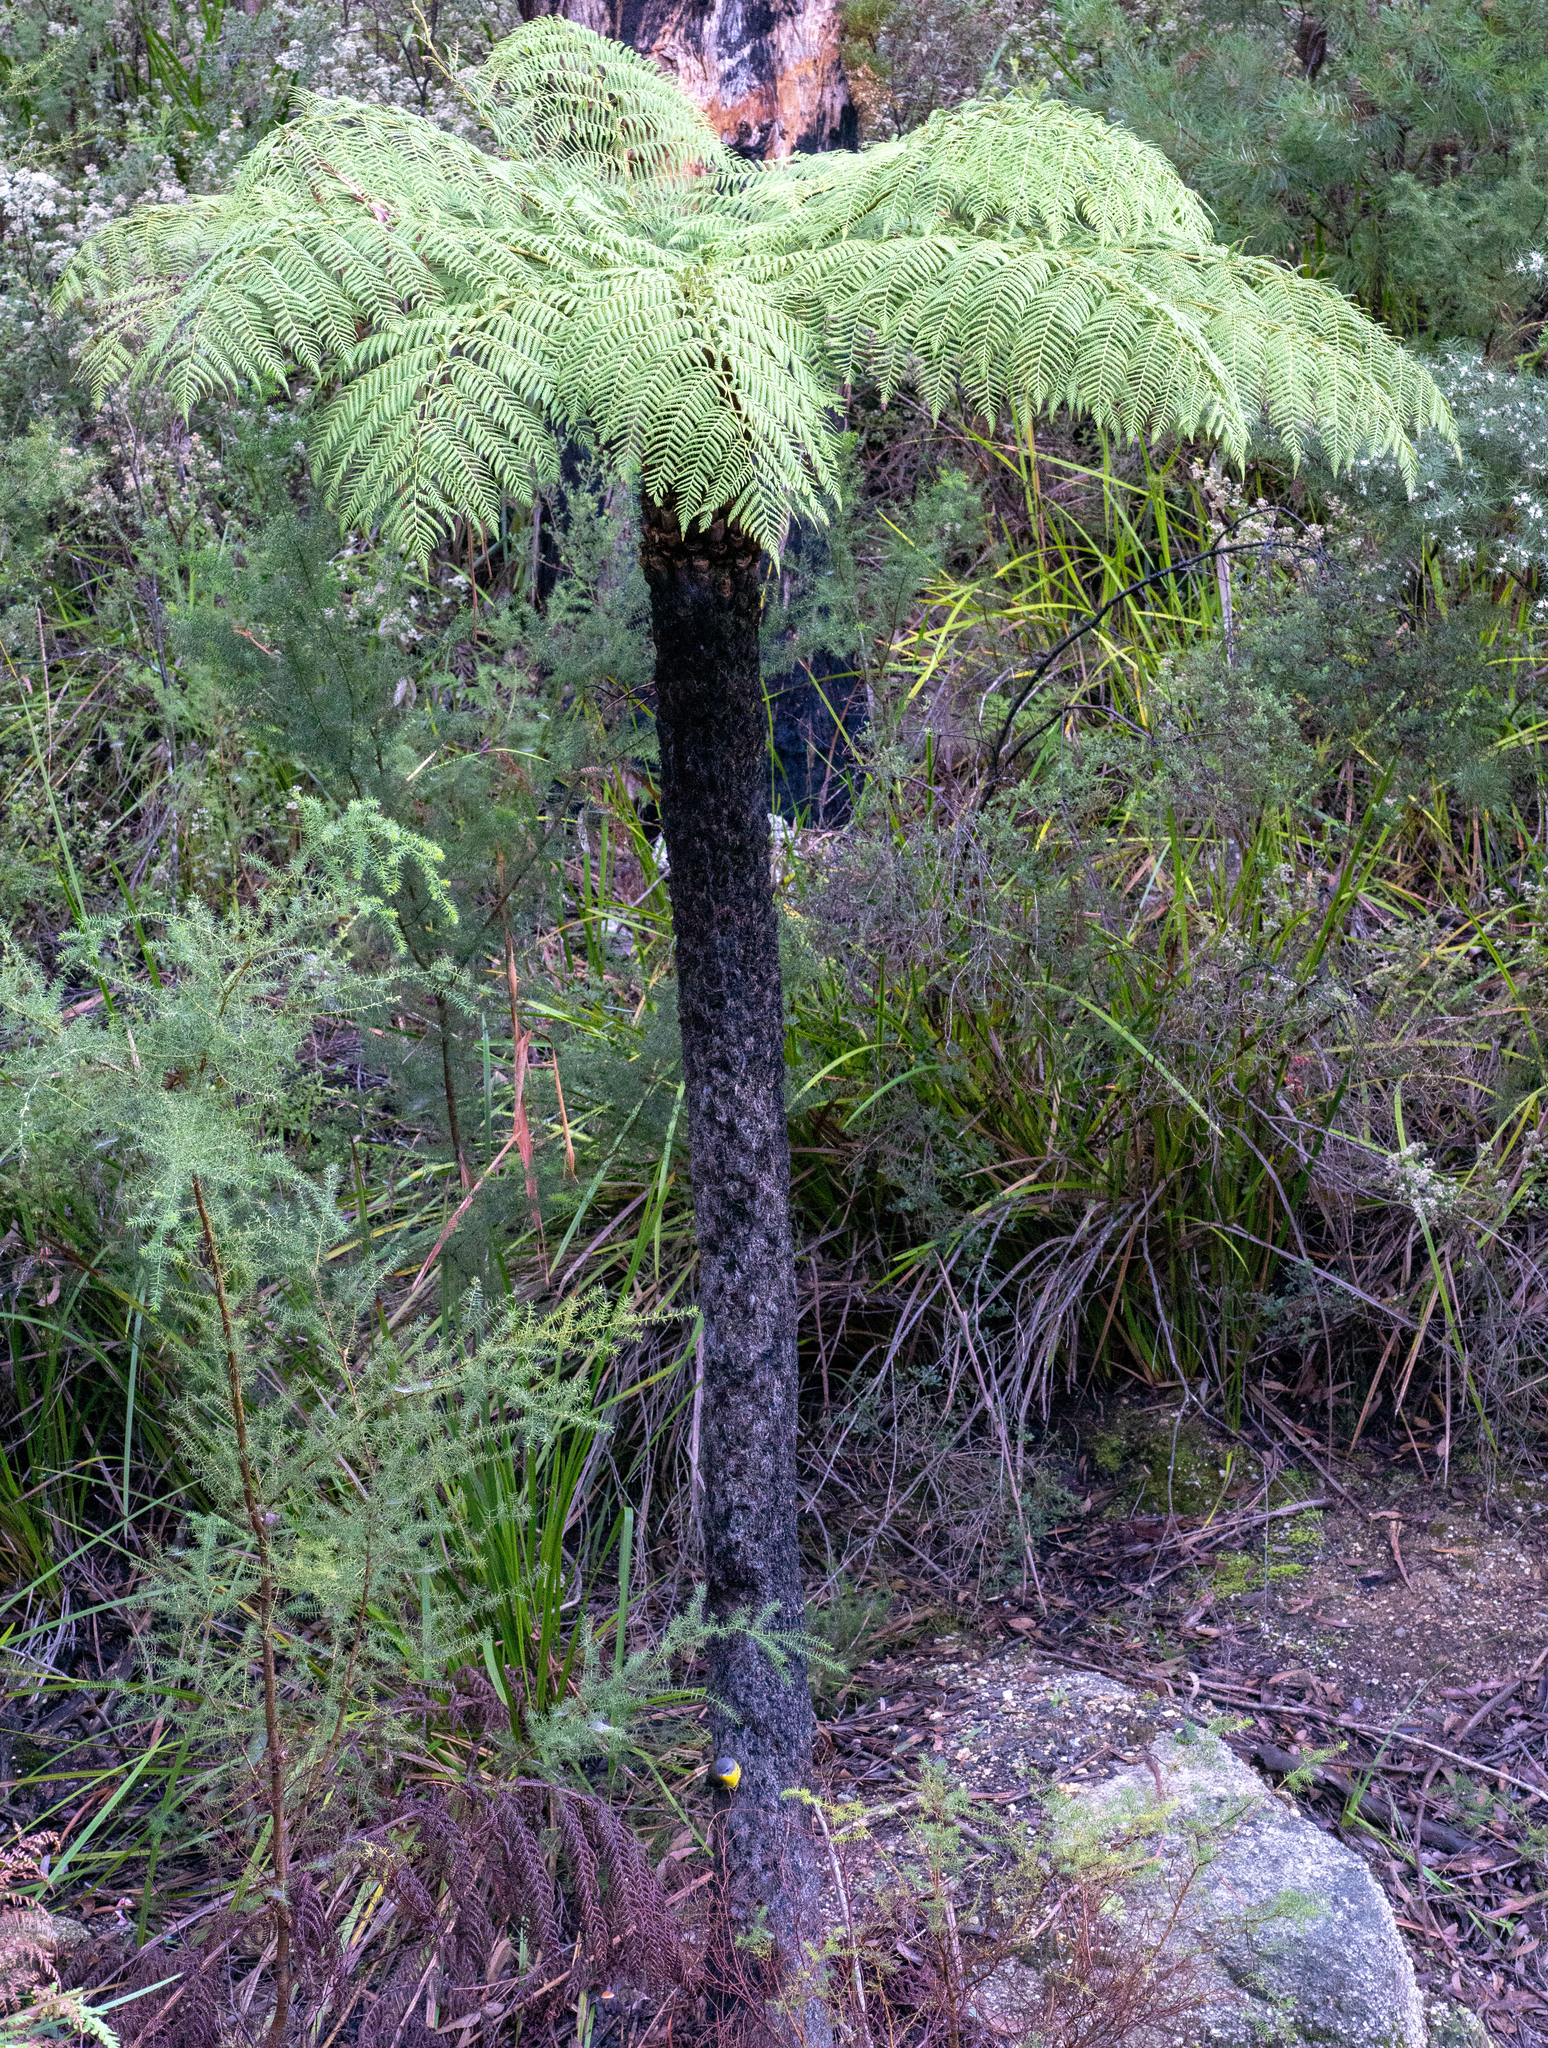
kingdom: Plantae
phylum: Tracheophyta
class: Polypodiopsida
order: Cyatheales
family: Cyatheaceae
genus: Alsophila
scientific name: Alsophila australis
